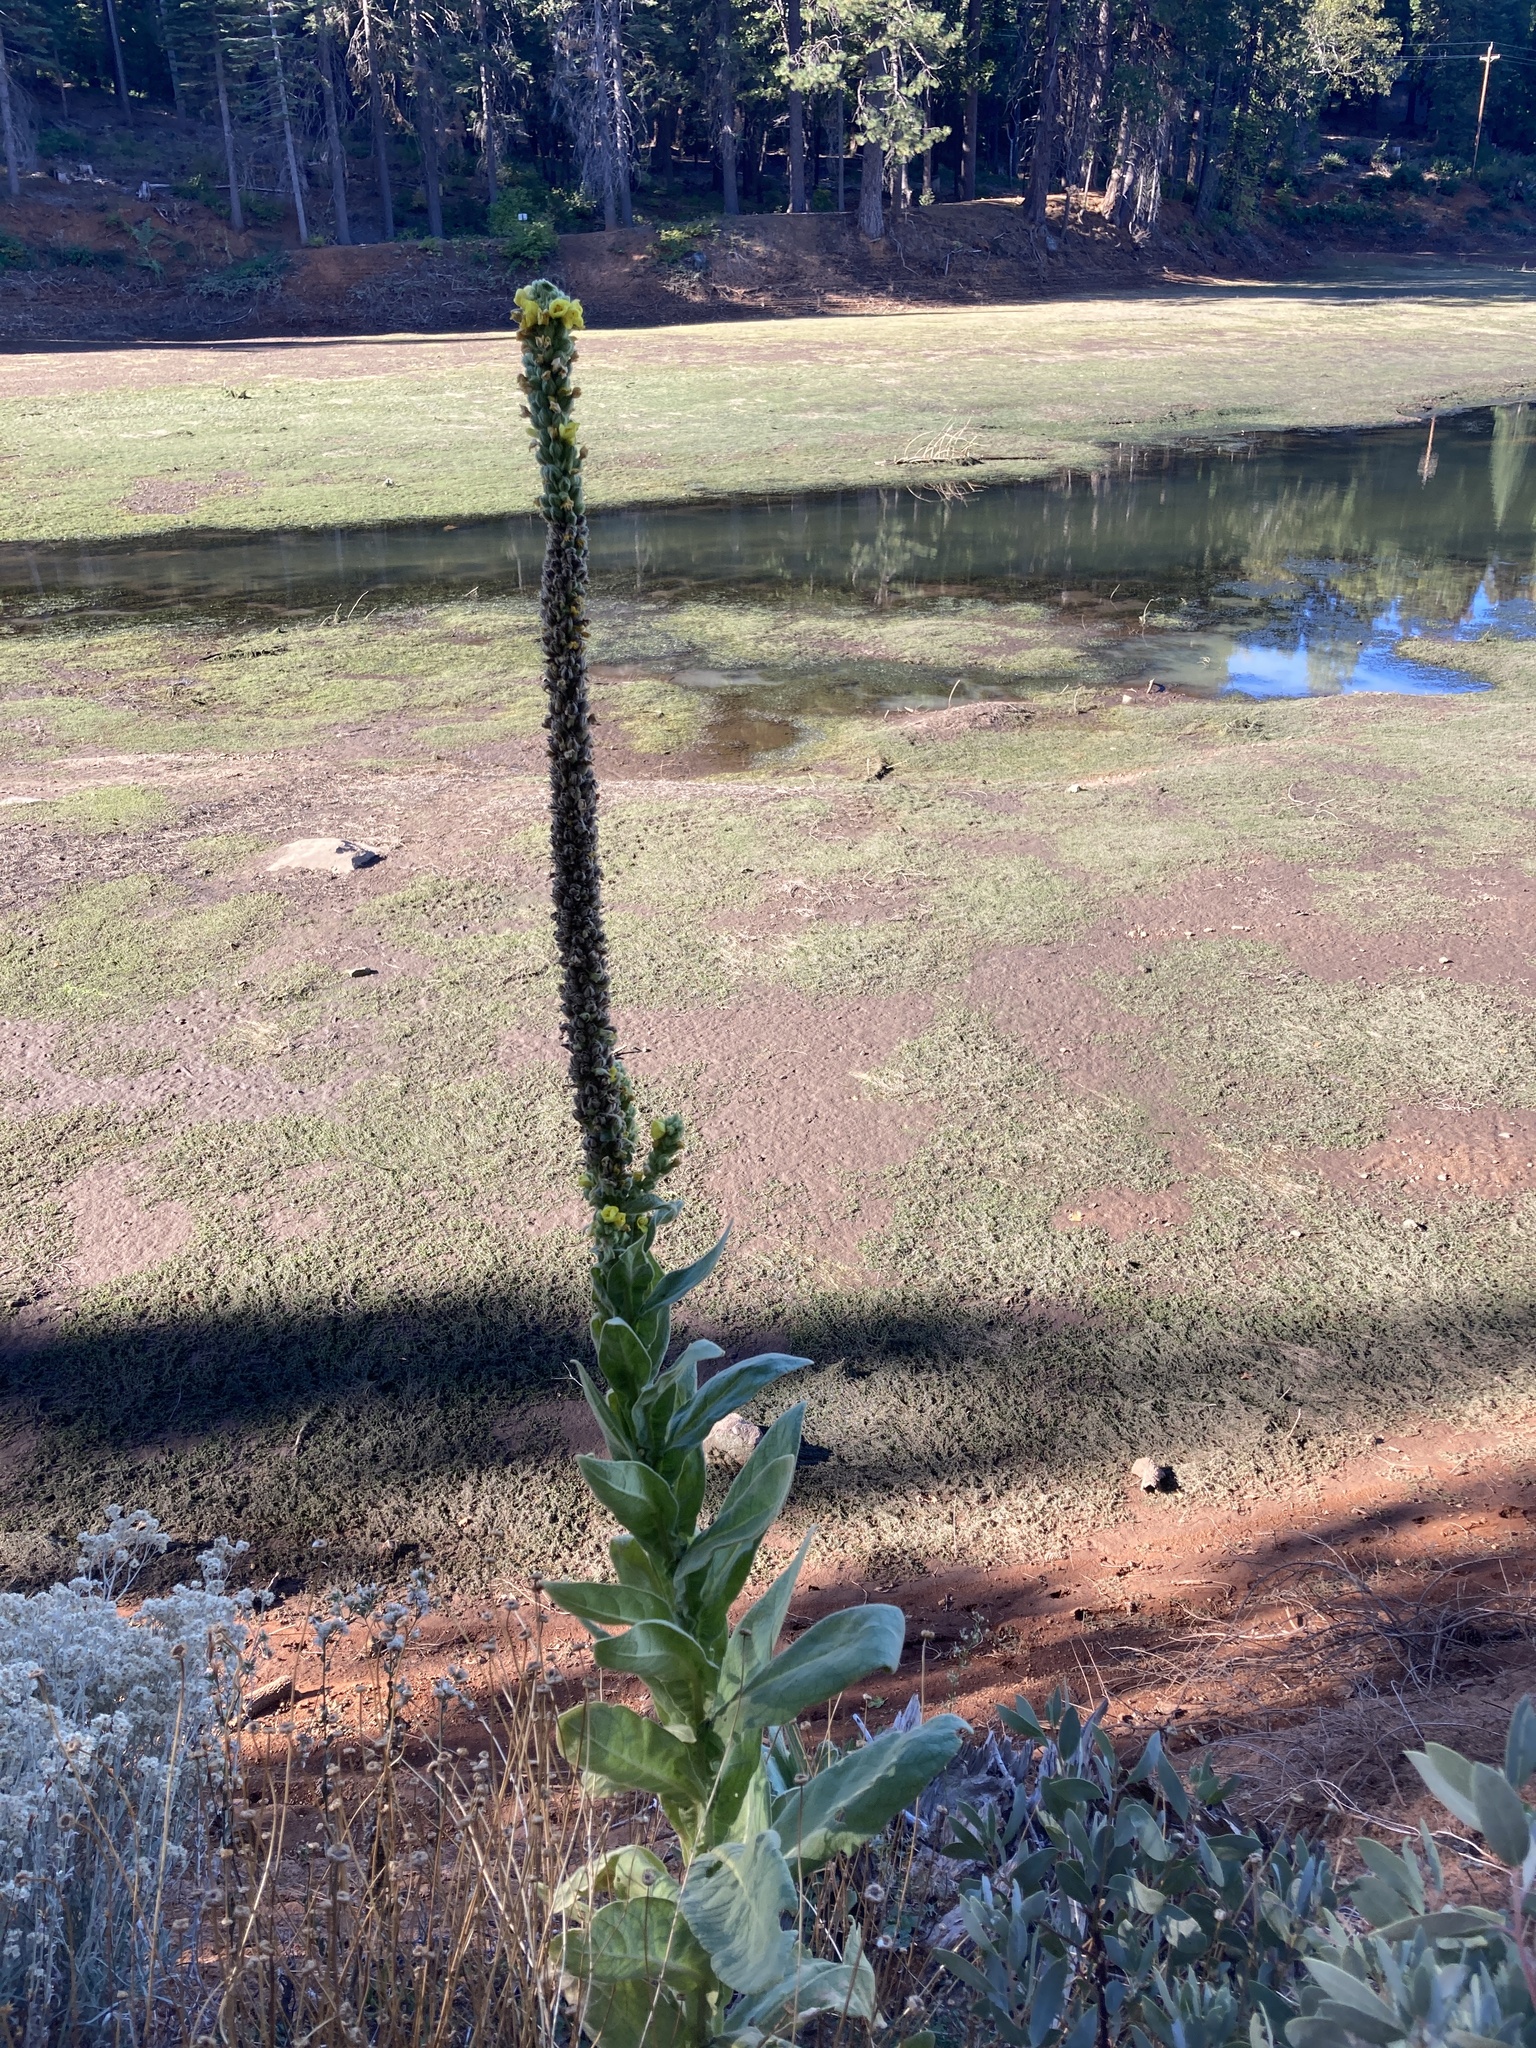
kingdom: Plantae
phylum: Tracheophyta
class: Magnoliopsida
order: Lamiales
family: Scrophulariaceae
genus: Verbascum
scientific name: Verbascum thapsus
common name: Common mullein
